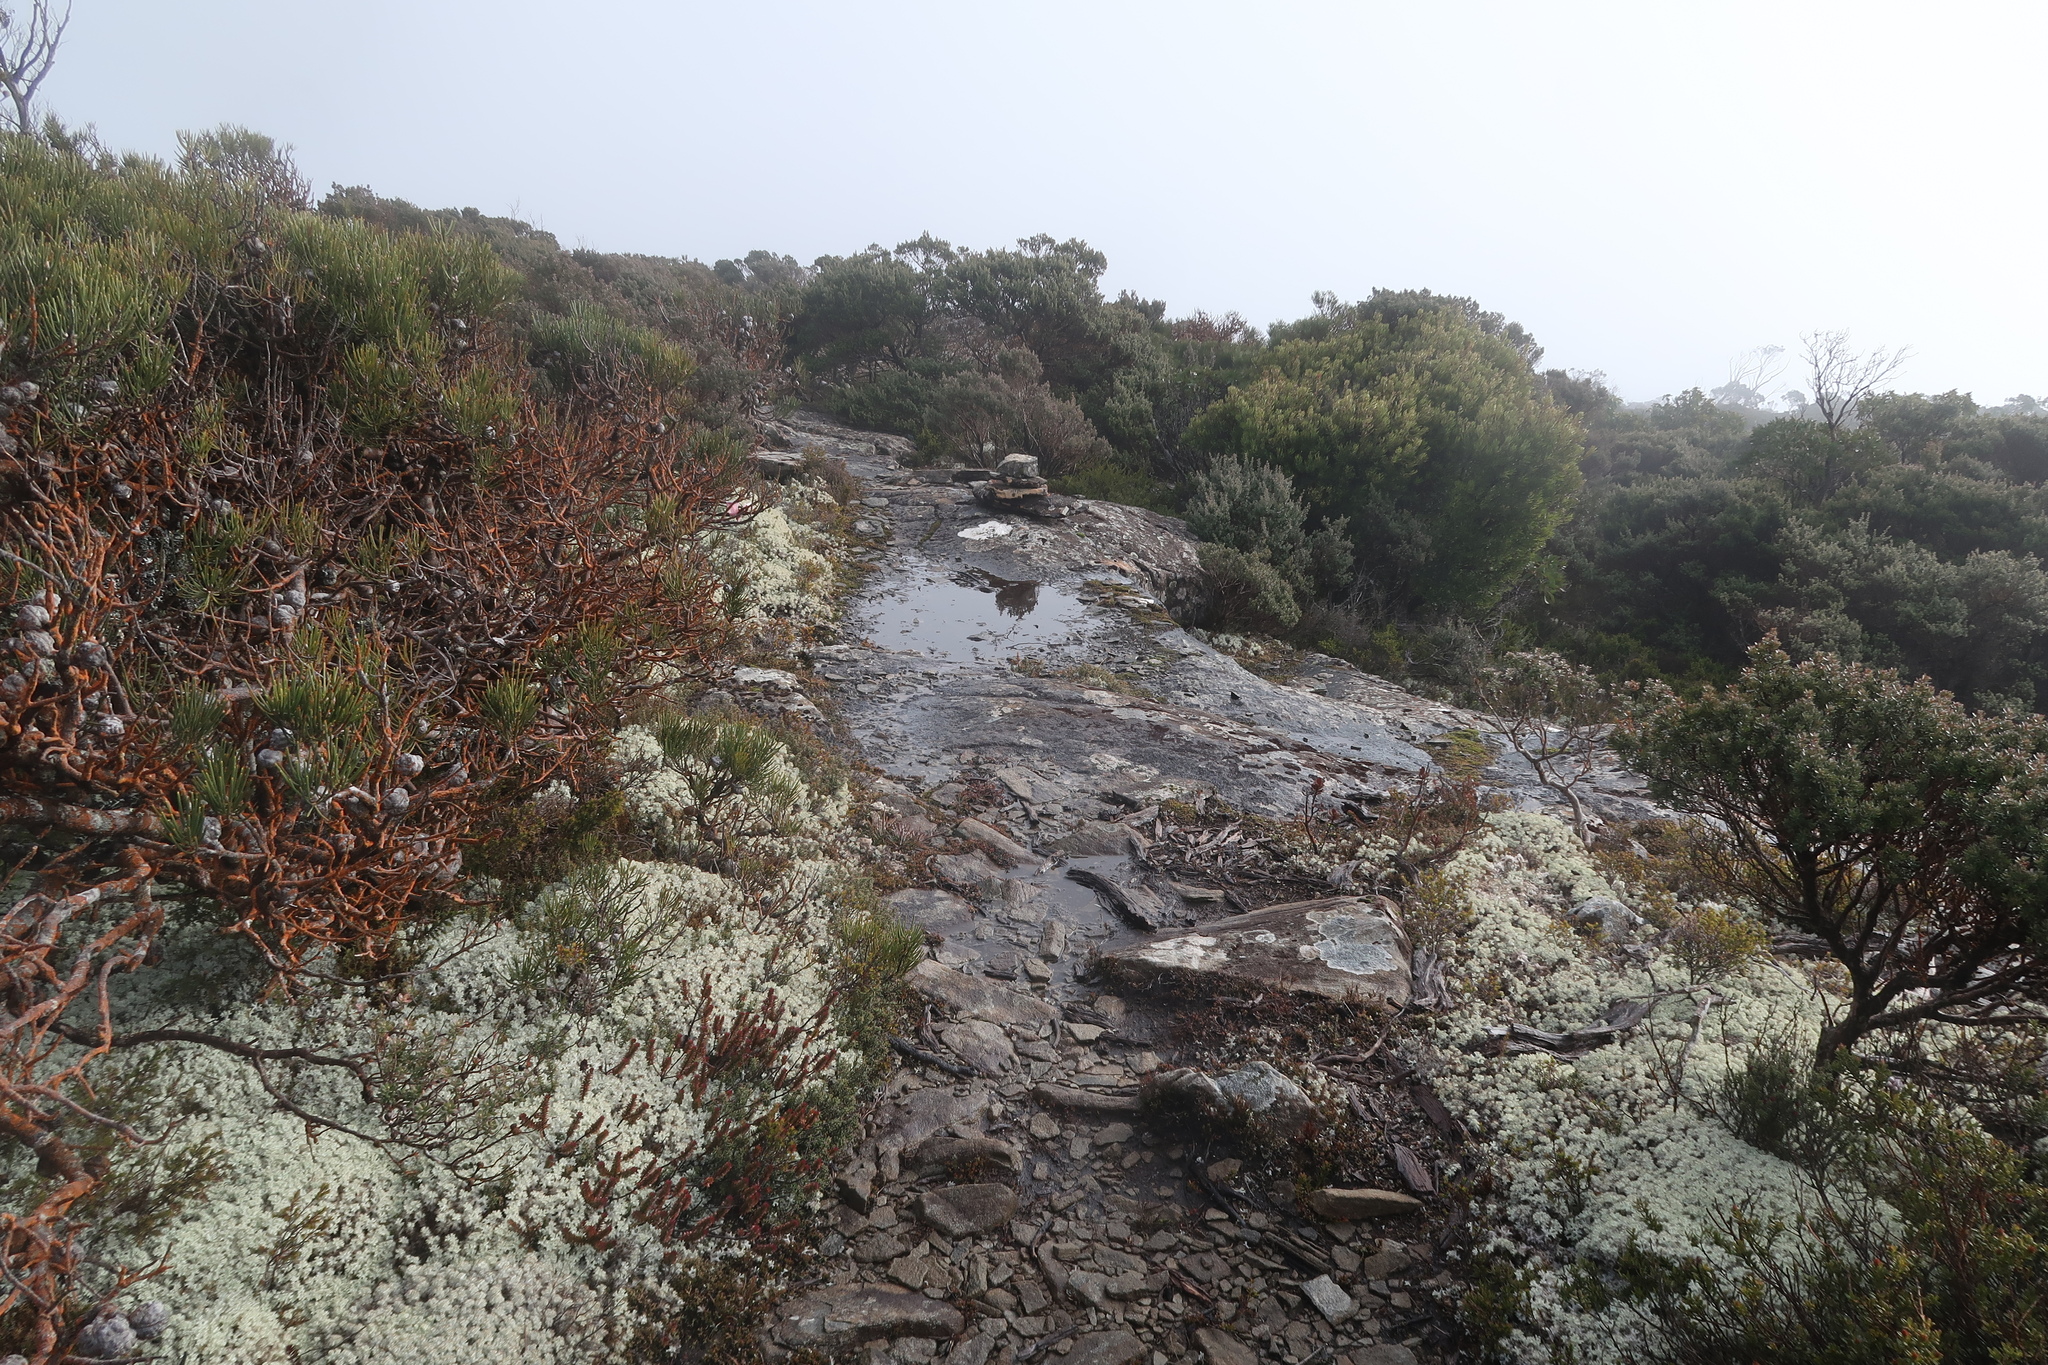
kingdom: Fungi
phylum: Ascomycota
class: Lecanoromycetes
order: Lecanorales
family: Cladoniaceae
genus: Pulchrocladia
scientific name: Pulchrocladia retipora
